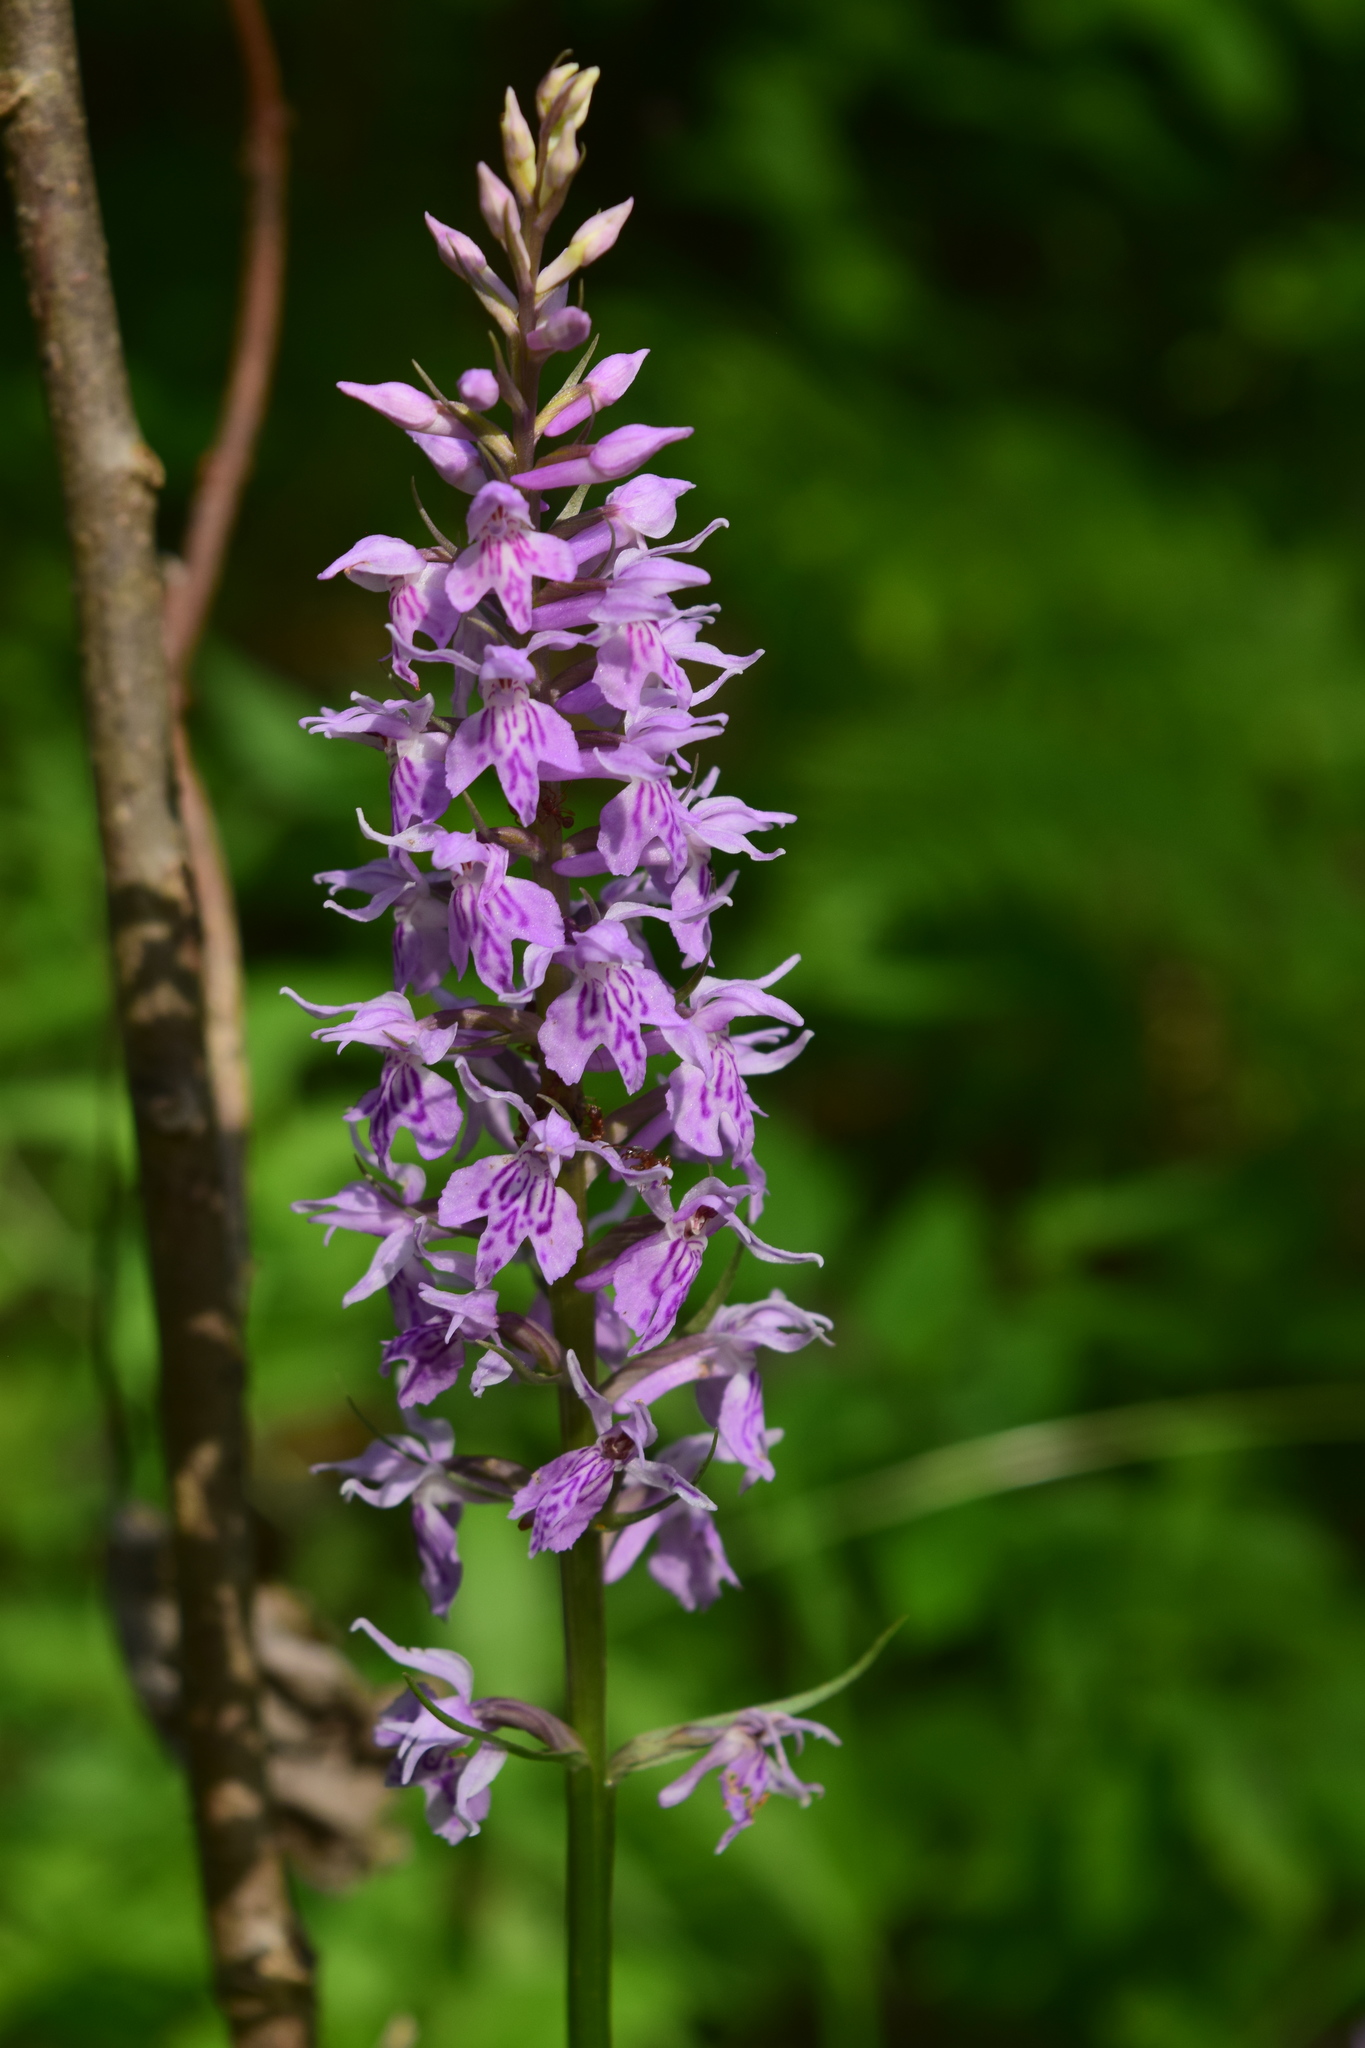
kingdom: Plantae
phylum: Tracheophyta
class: Liliopsida
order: Asparagales
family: Orchidaceae
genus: Dactylorhiza
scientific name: Dactylorhiza maculata
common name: Heath spotted-orchid
